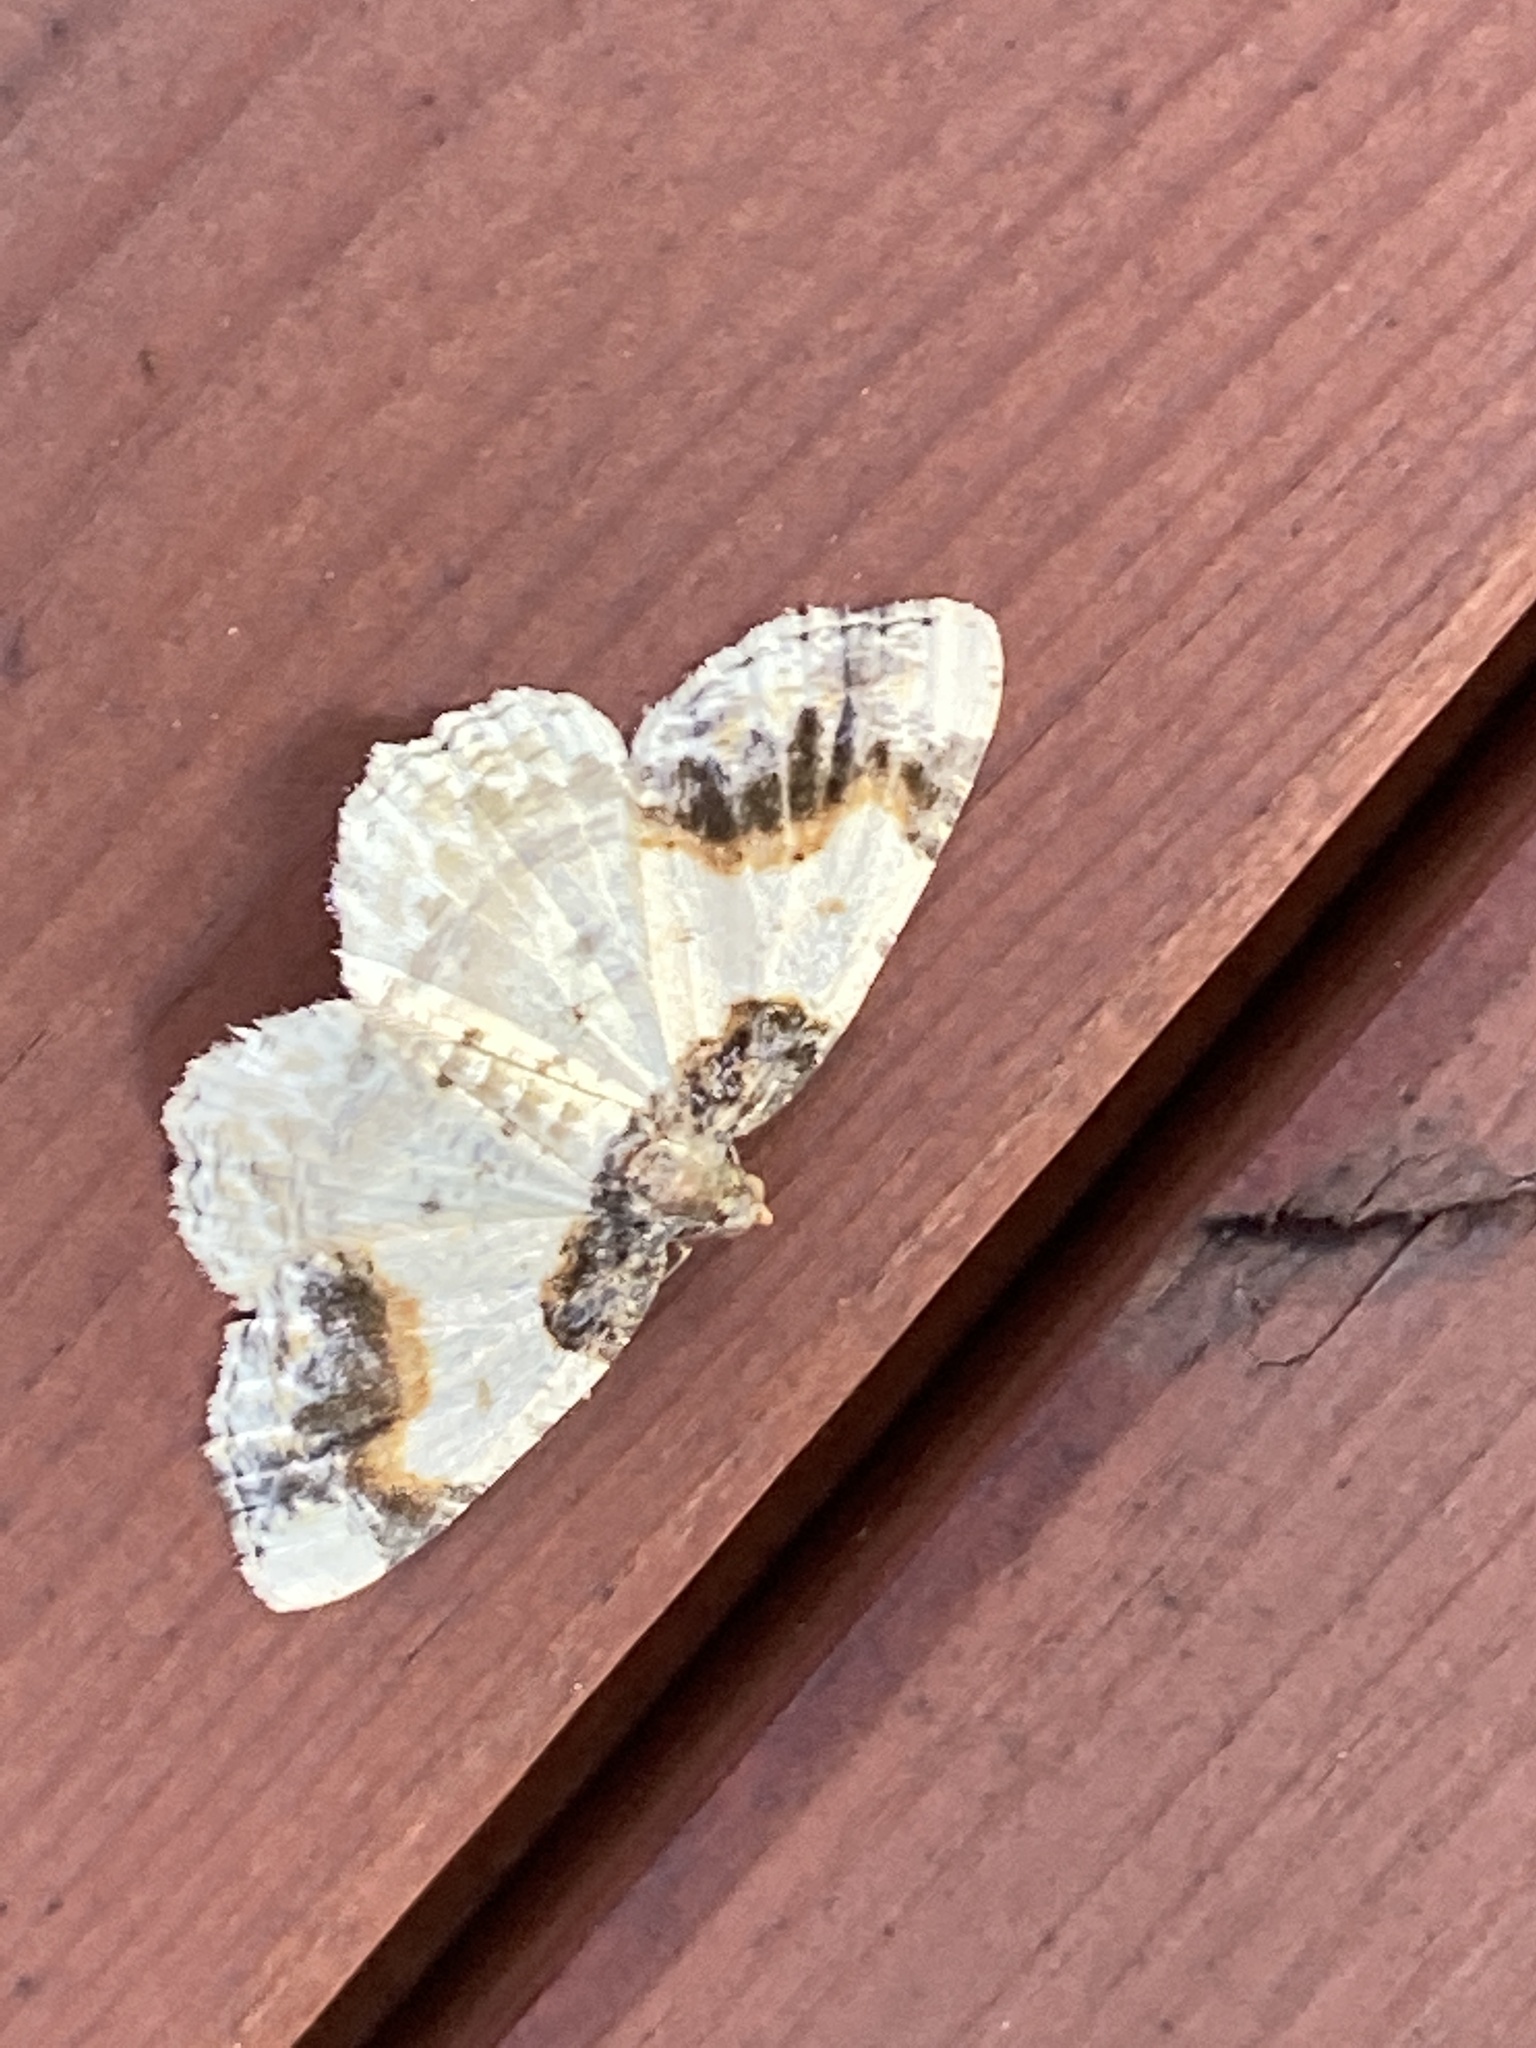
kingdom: Animalia
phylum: Arthropoda
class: Insecta
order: Lepidoptera
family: Geometridae
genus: Ligdia
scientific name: Ligdia adustata
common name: Scorched carpet
